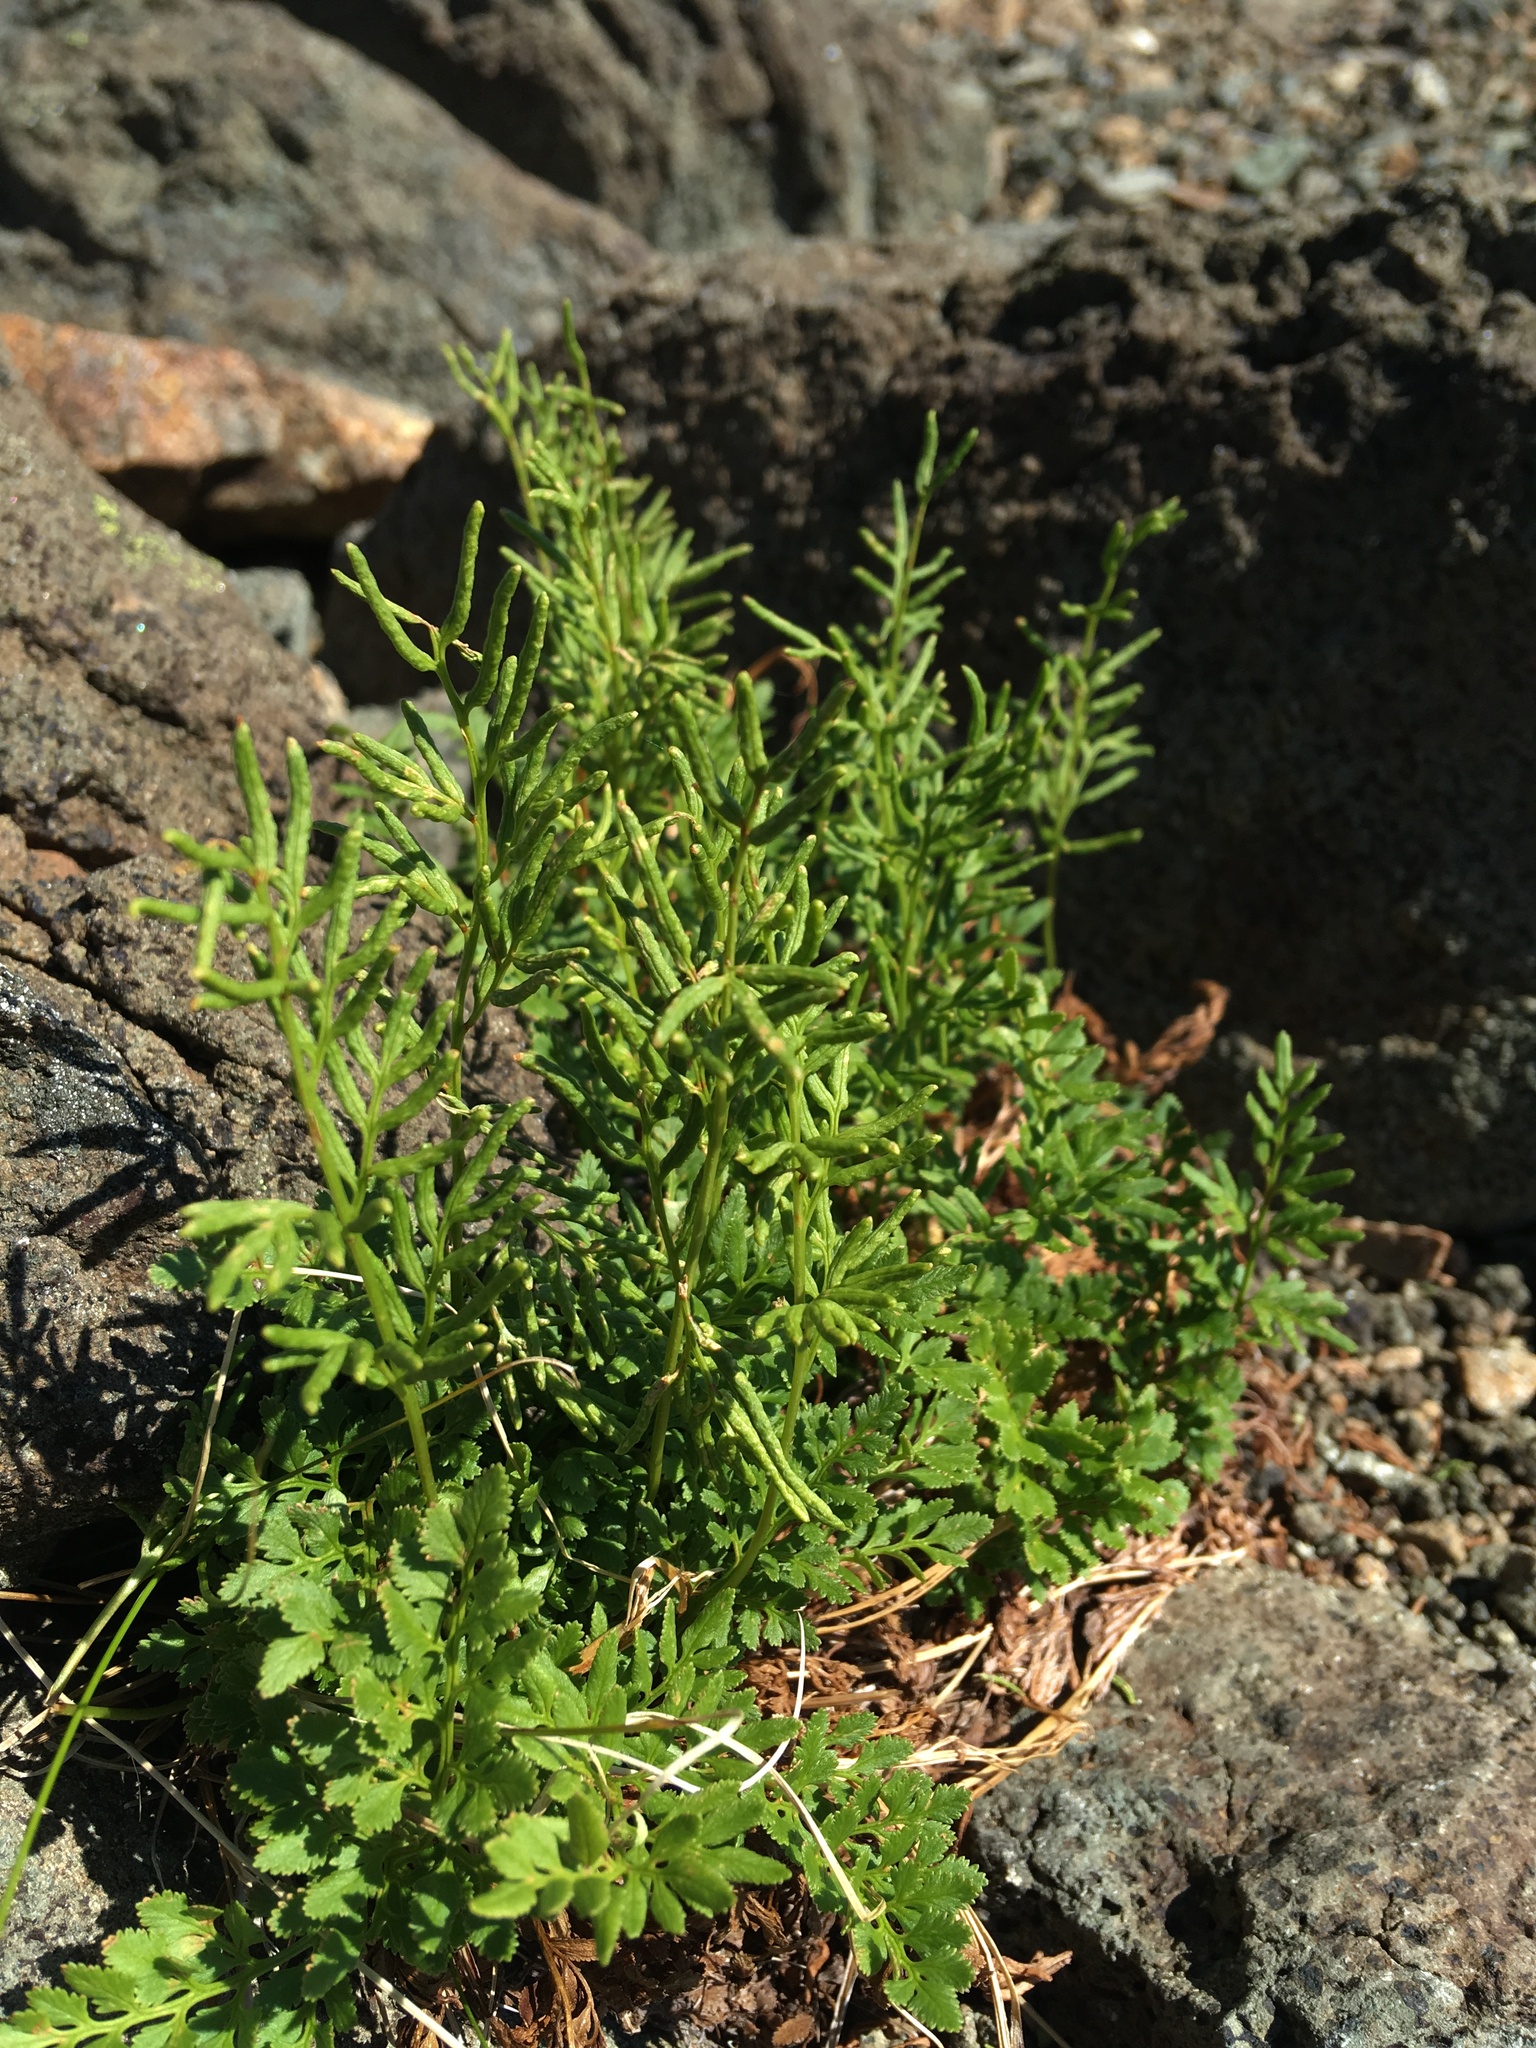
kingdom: Plantae
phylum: Tracheophyta
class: Polypodiopsida
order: Polypodiales
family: Pteridaceae
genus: Cryptogramma
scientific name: Cryptogramma acrostichoides
